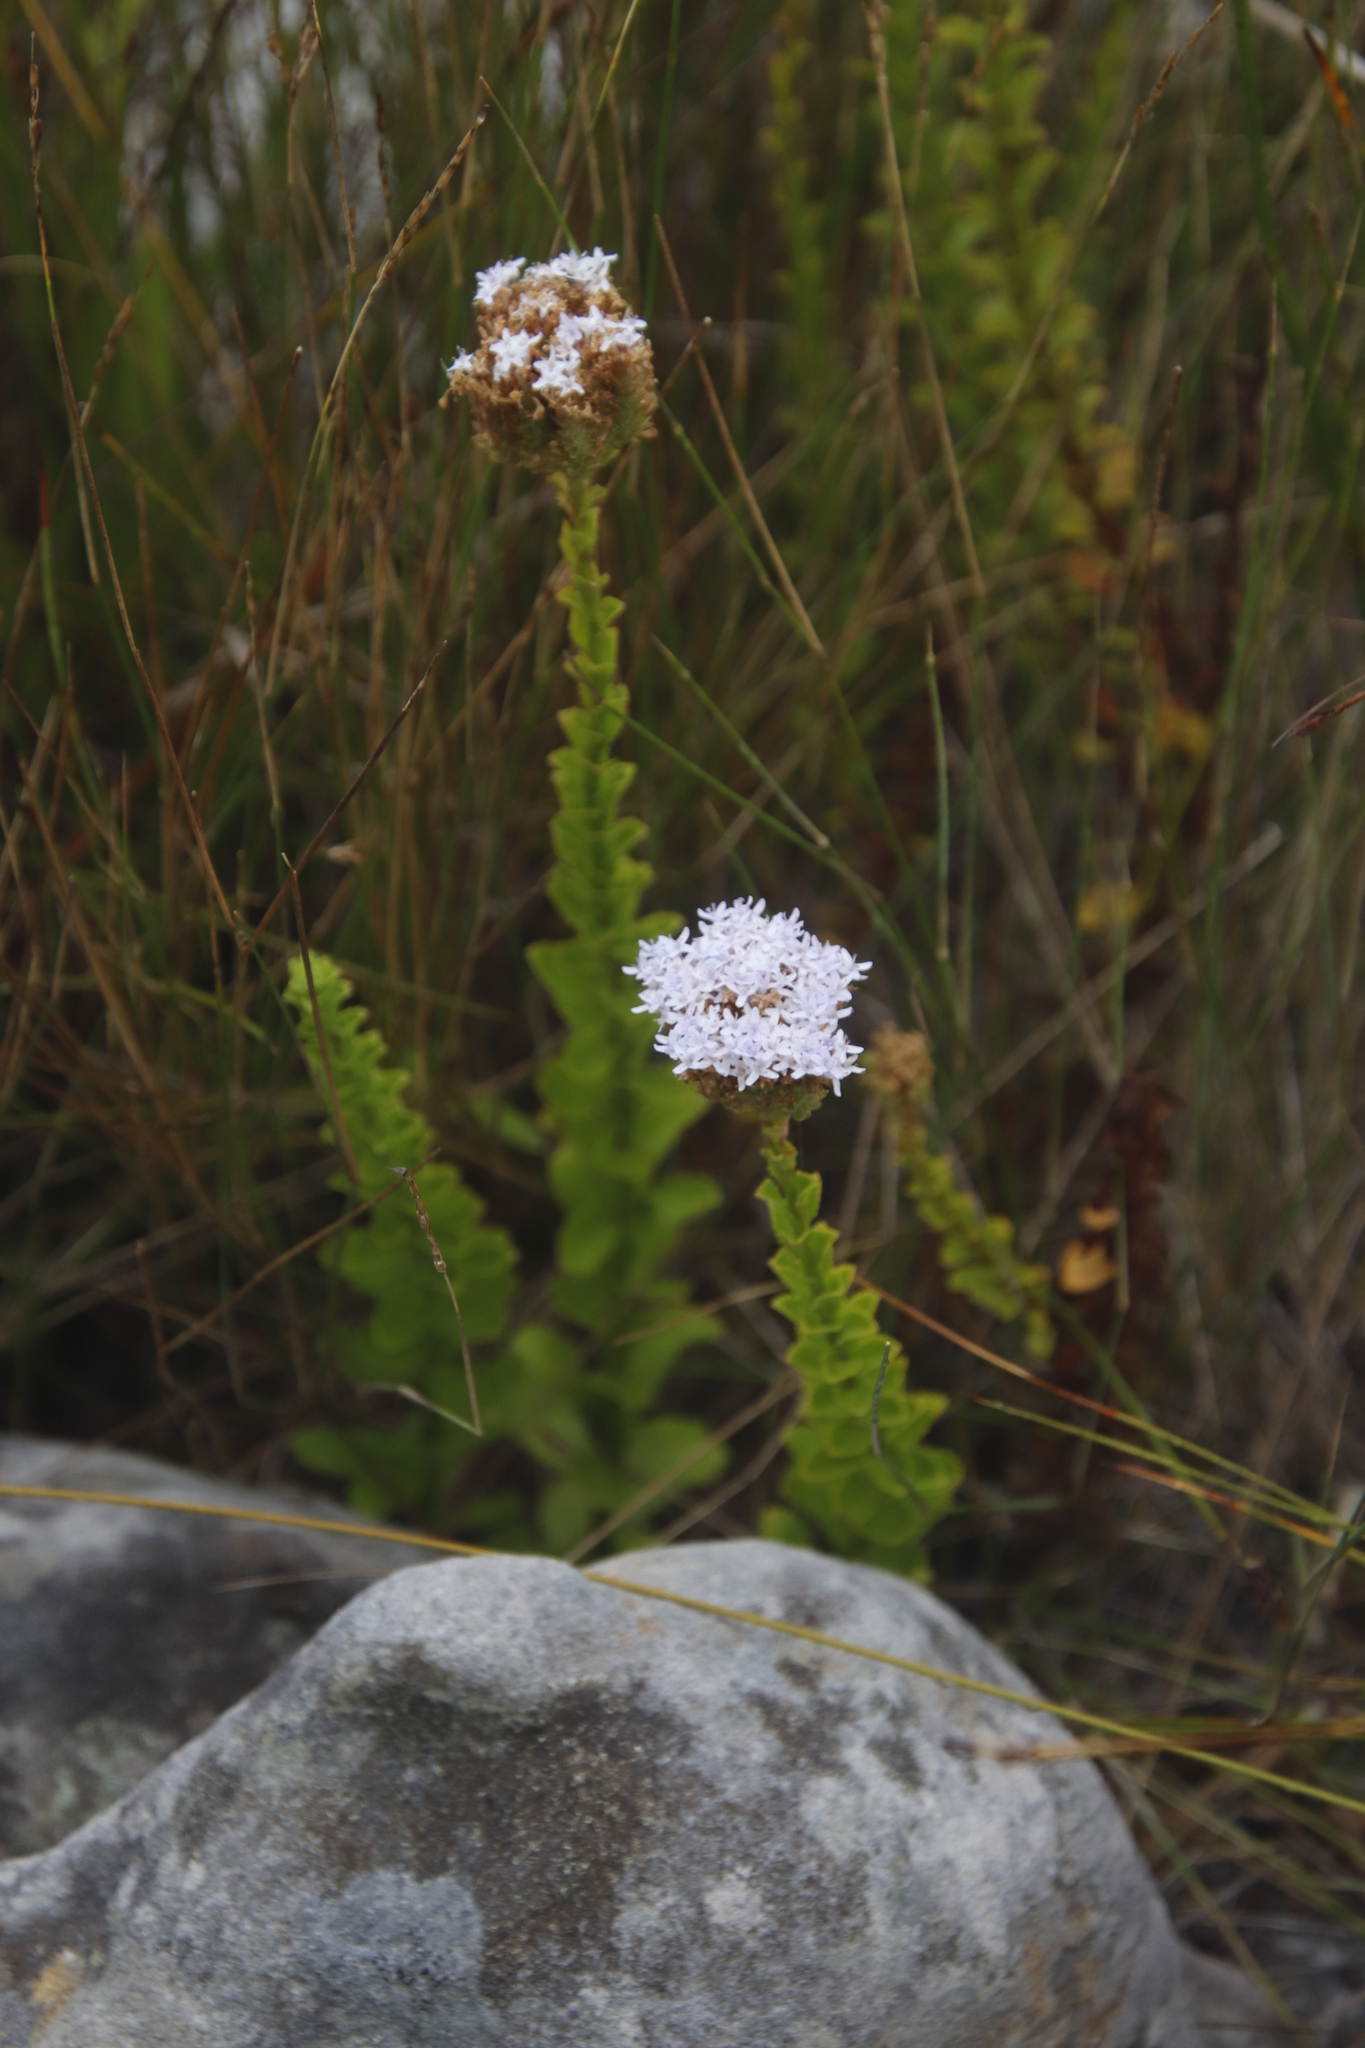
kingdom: Plantae
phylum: Tracheophyta
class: Magnoliopsida
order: Lamiales
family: Scrophulariaceae
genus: Pseudoselago
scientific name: Pseudoselago serrata
